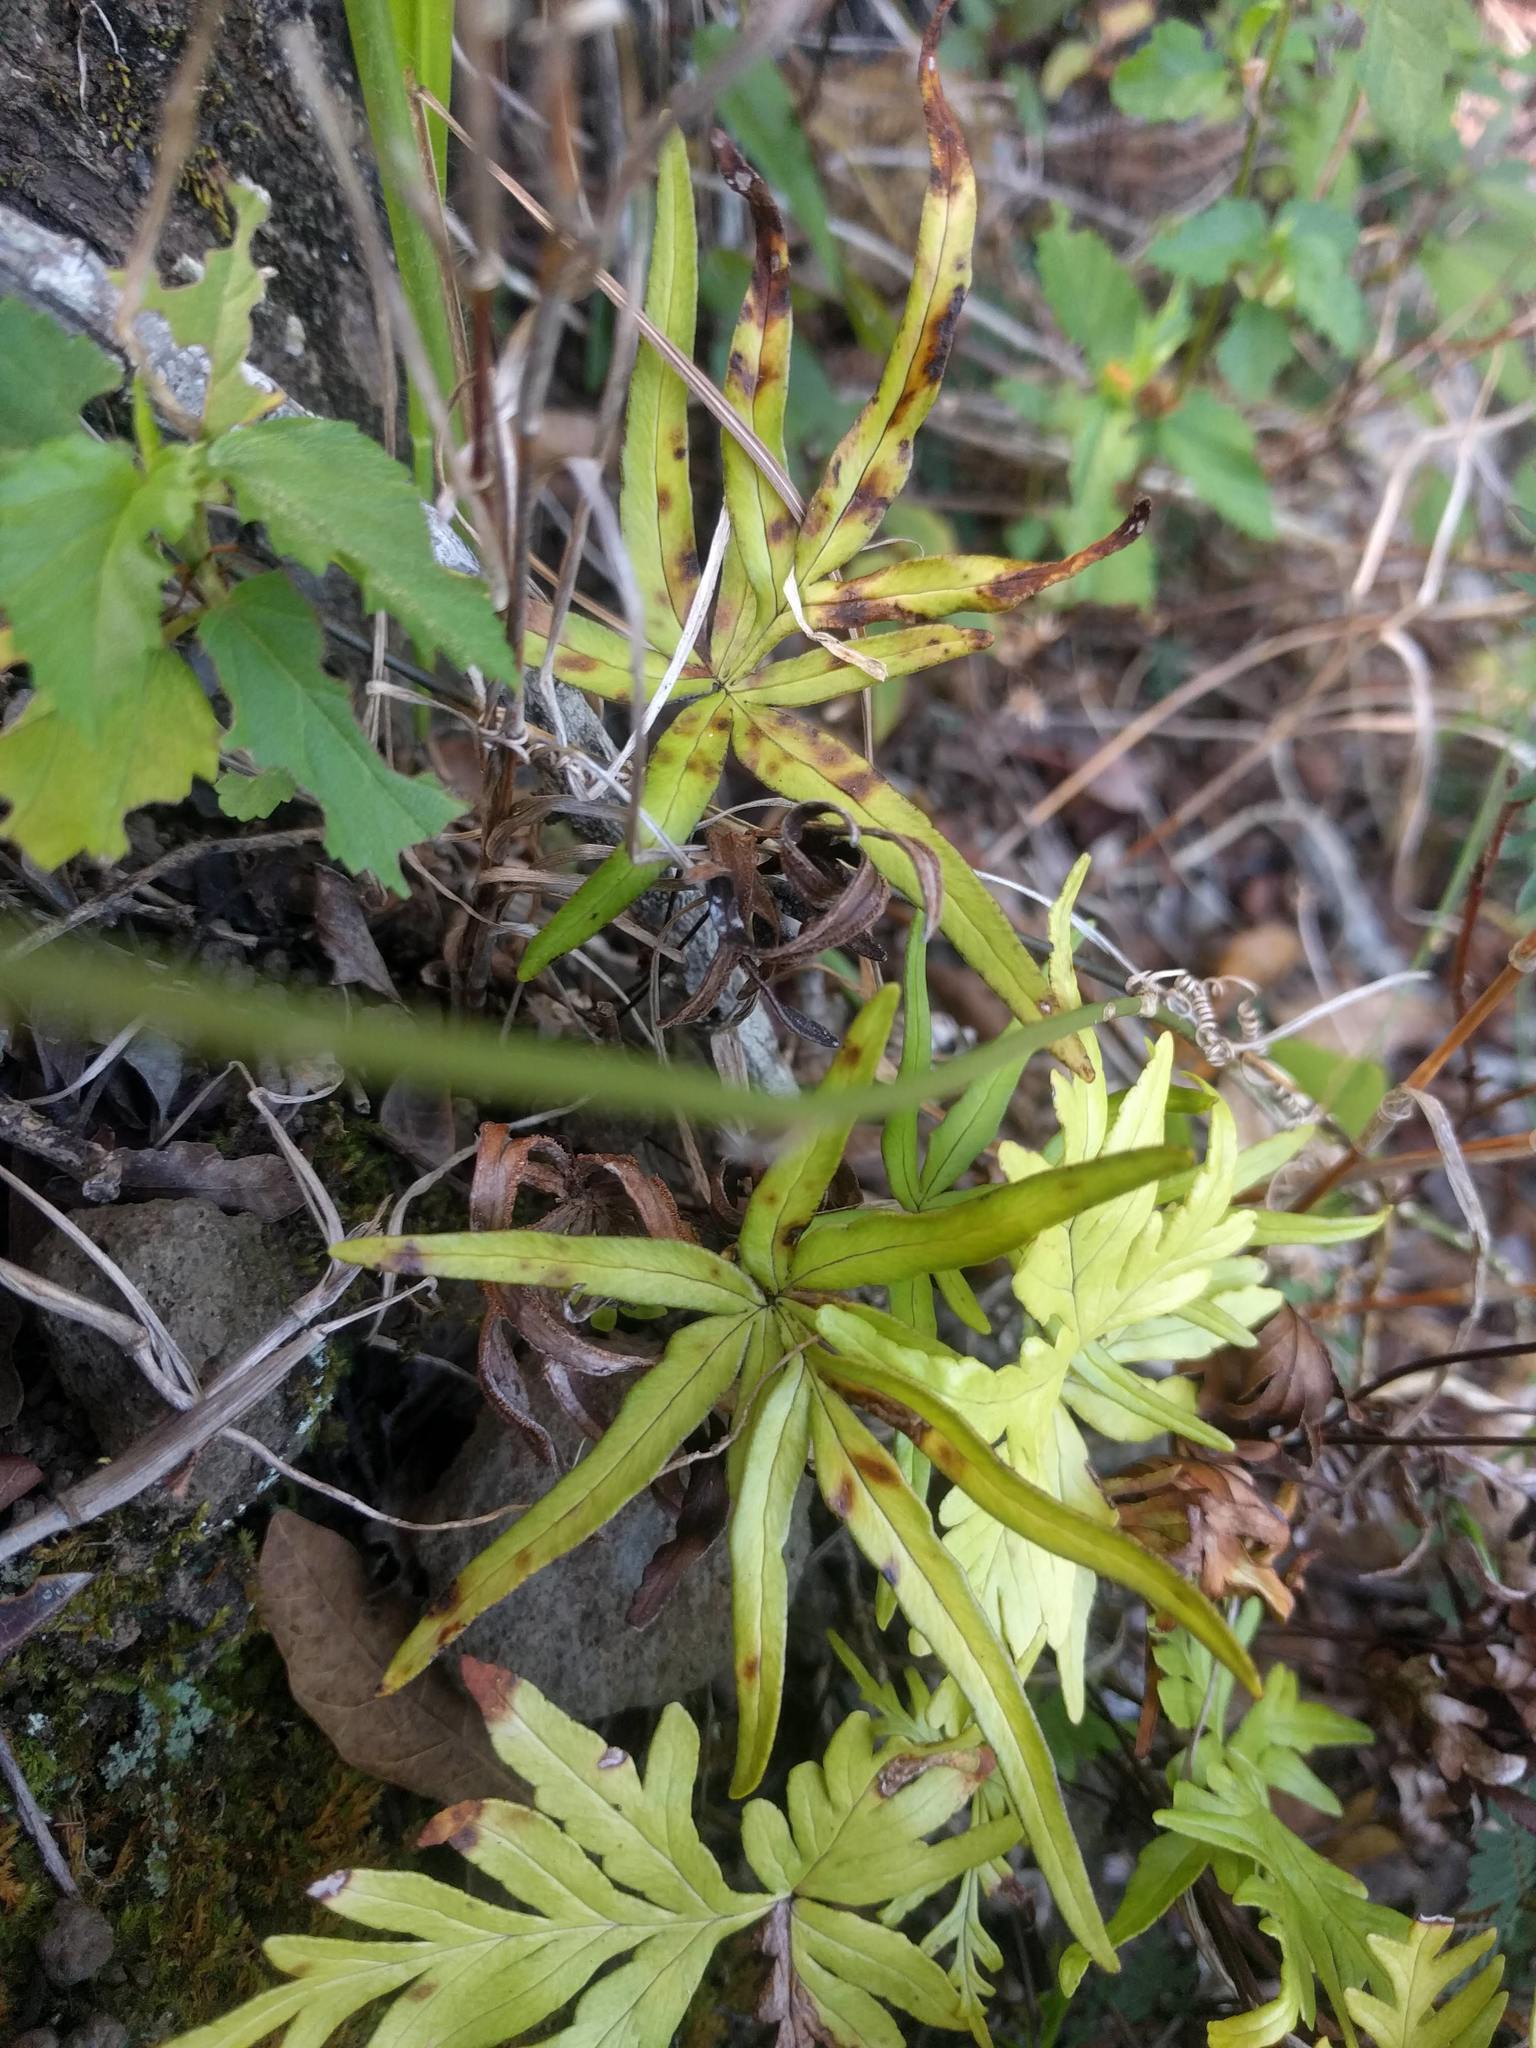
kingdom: Plantae
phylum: Tracheophyta
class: Polypodiopsida
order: Polypodiales
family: Pteridaceae
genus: Doryopteris
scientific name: Doryopteris subdecipiens
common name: Waianae mountain digit fern
